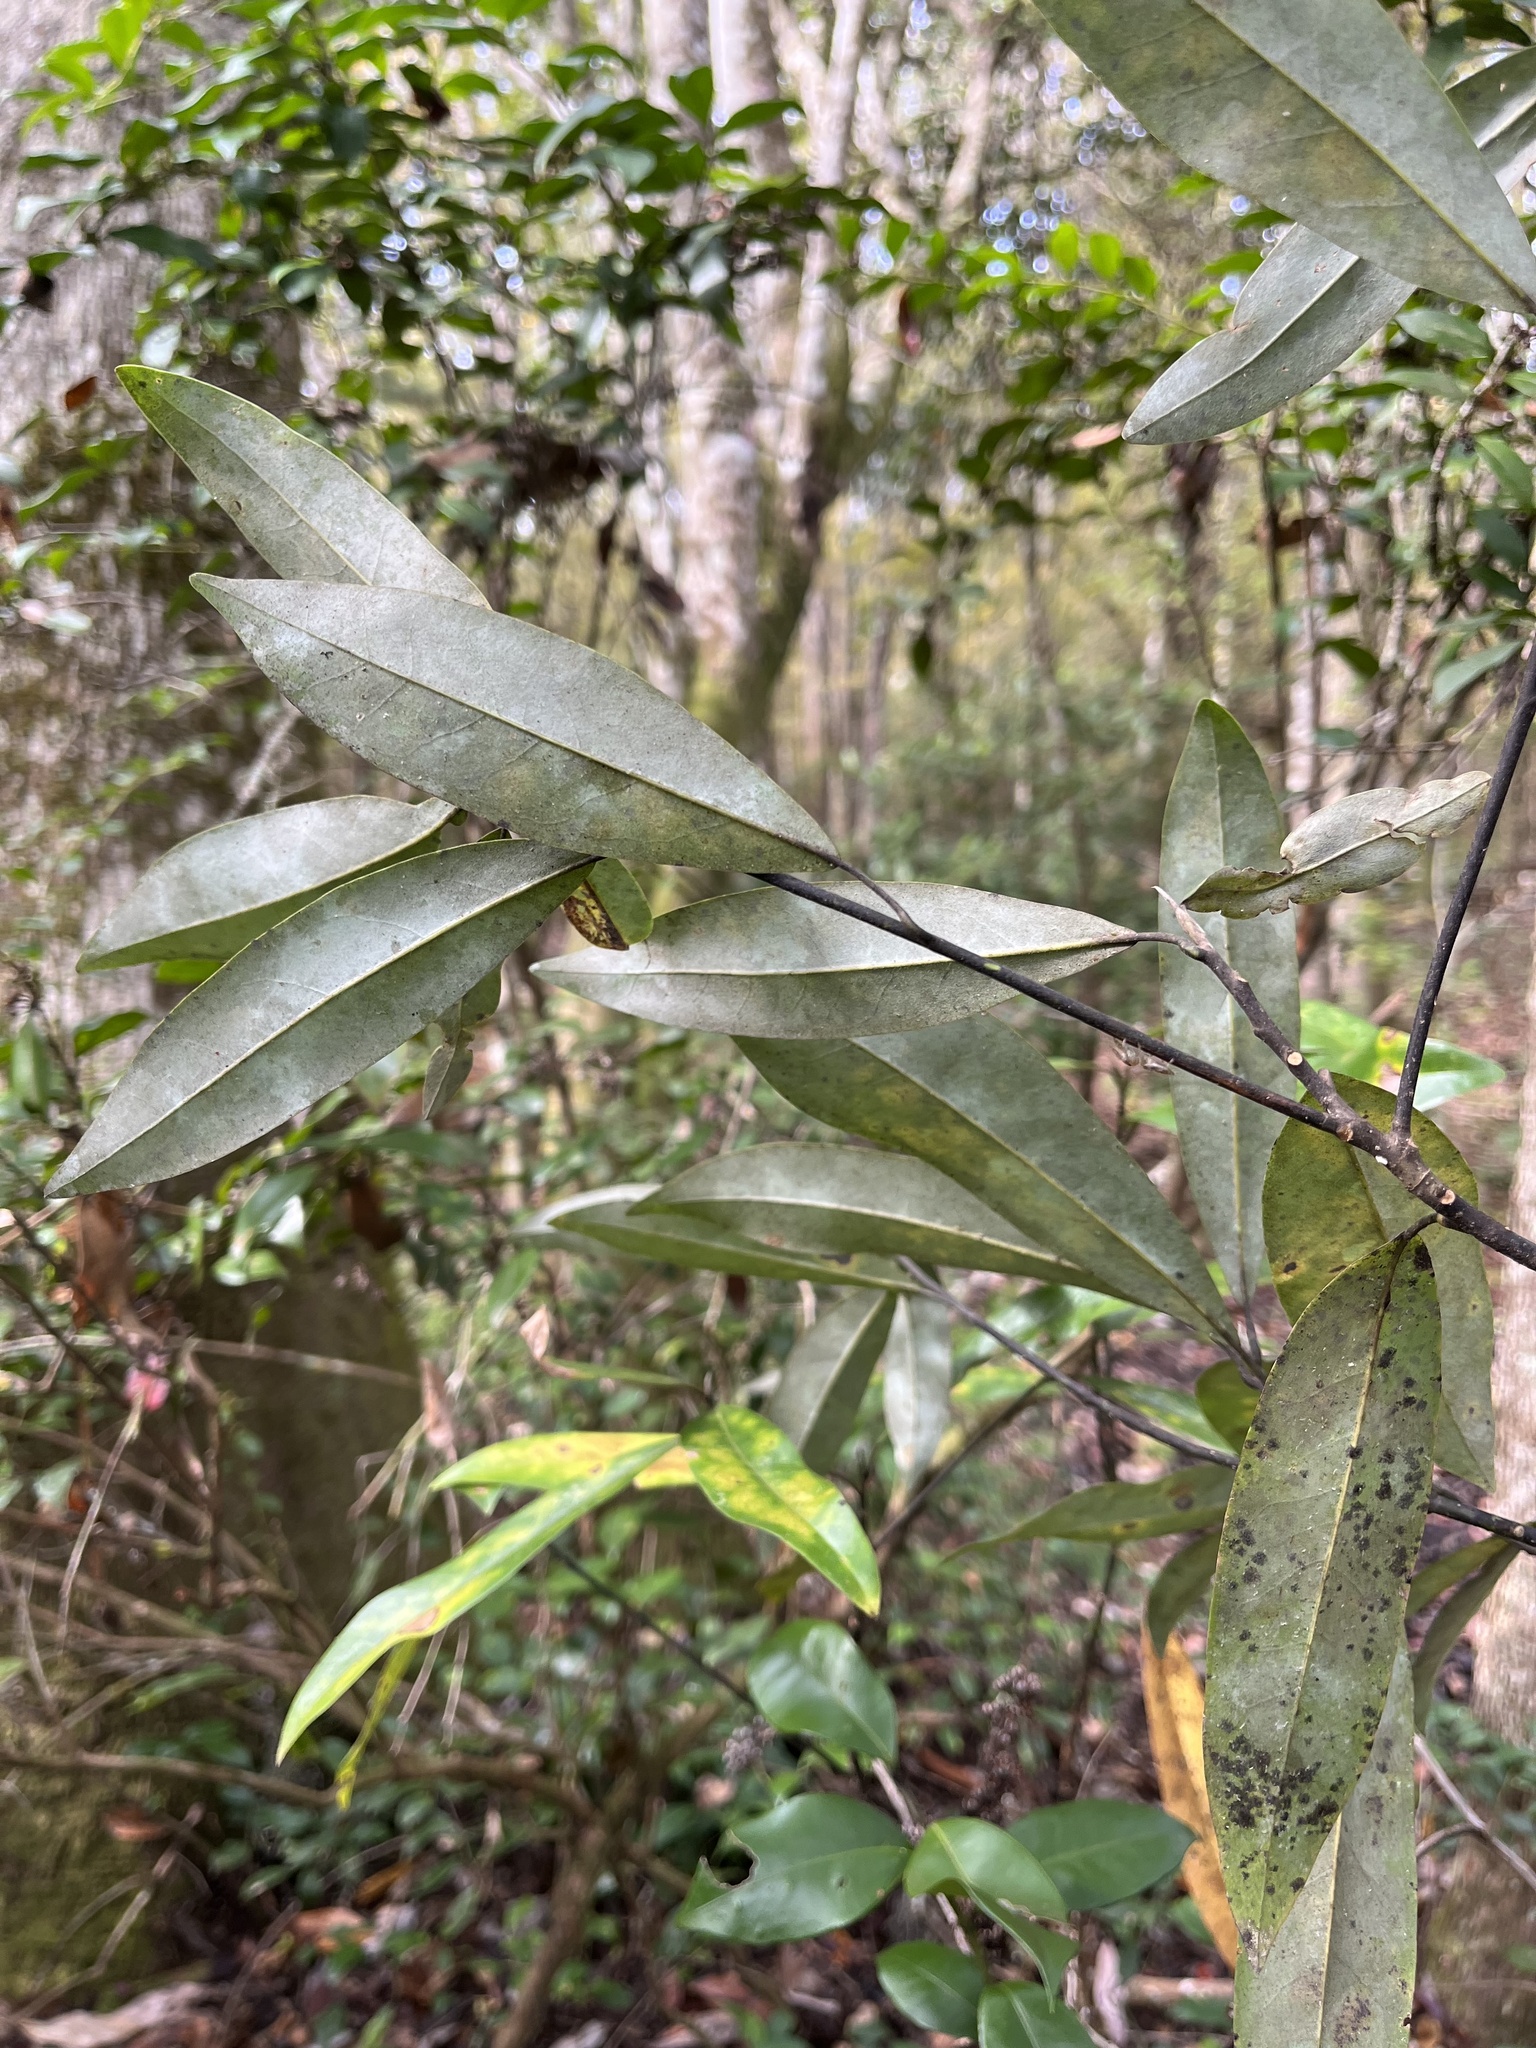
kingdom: Plantae
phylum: Tracheophyta
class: Magnoliopsida
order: Magnoliales
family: Magnoliaceae
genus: Magnolia
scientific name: Magnolia virginiana
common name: Swamp bay
